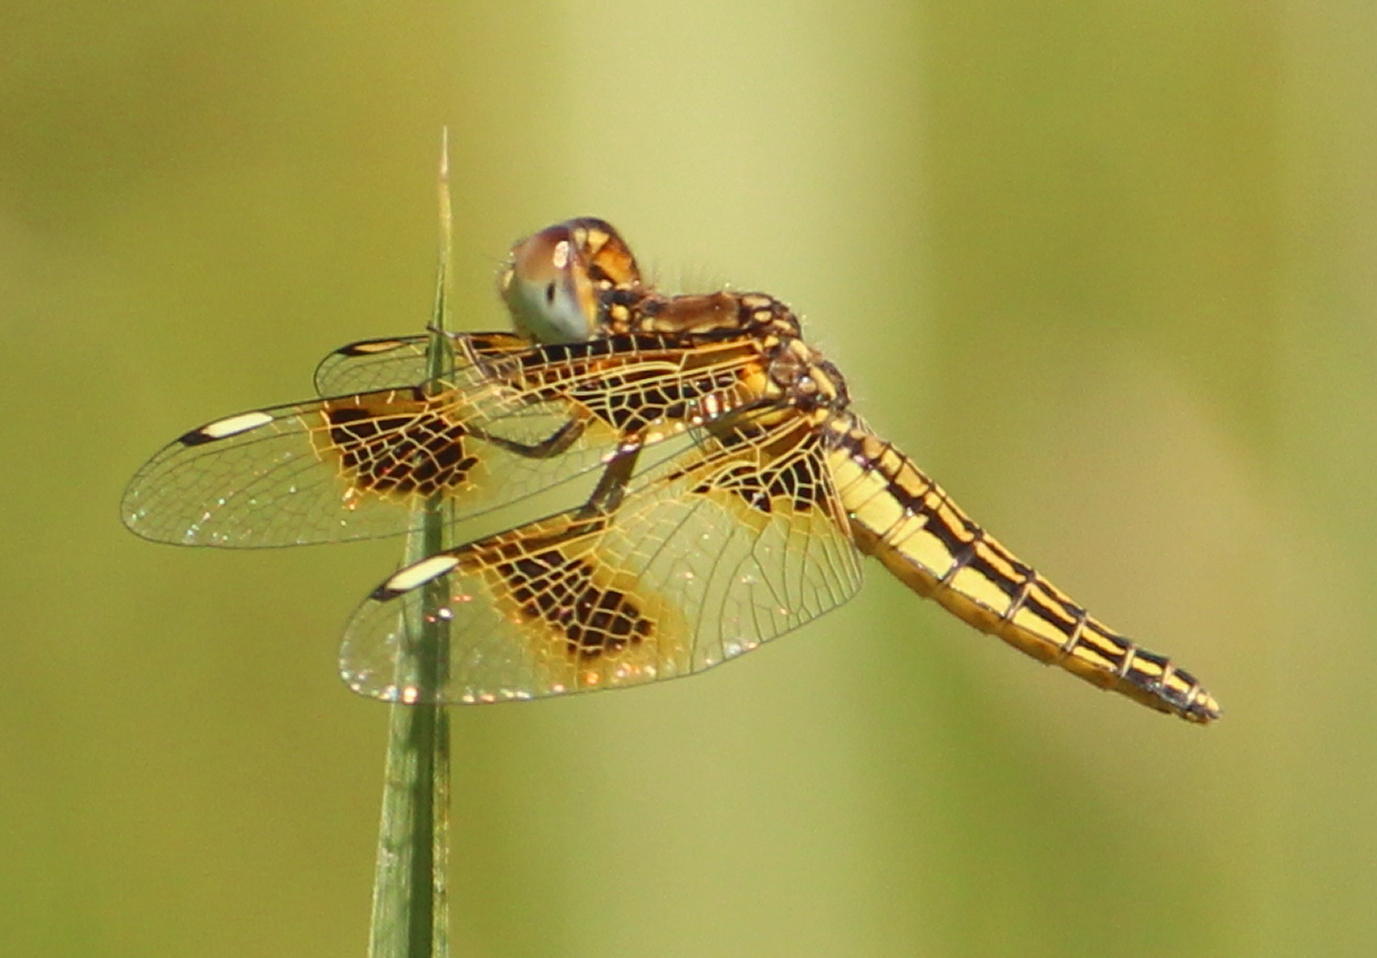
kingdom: Animalia
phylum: Arthropoda
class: Insecta
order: Odonata
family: Libellulidae
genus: Palpopleura
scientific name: Palpopleura jucunda
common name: Yellow-veined widow
